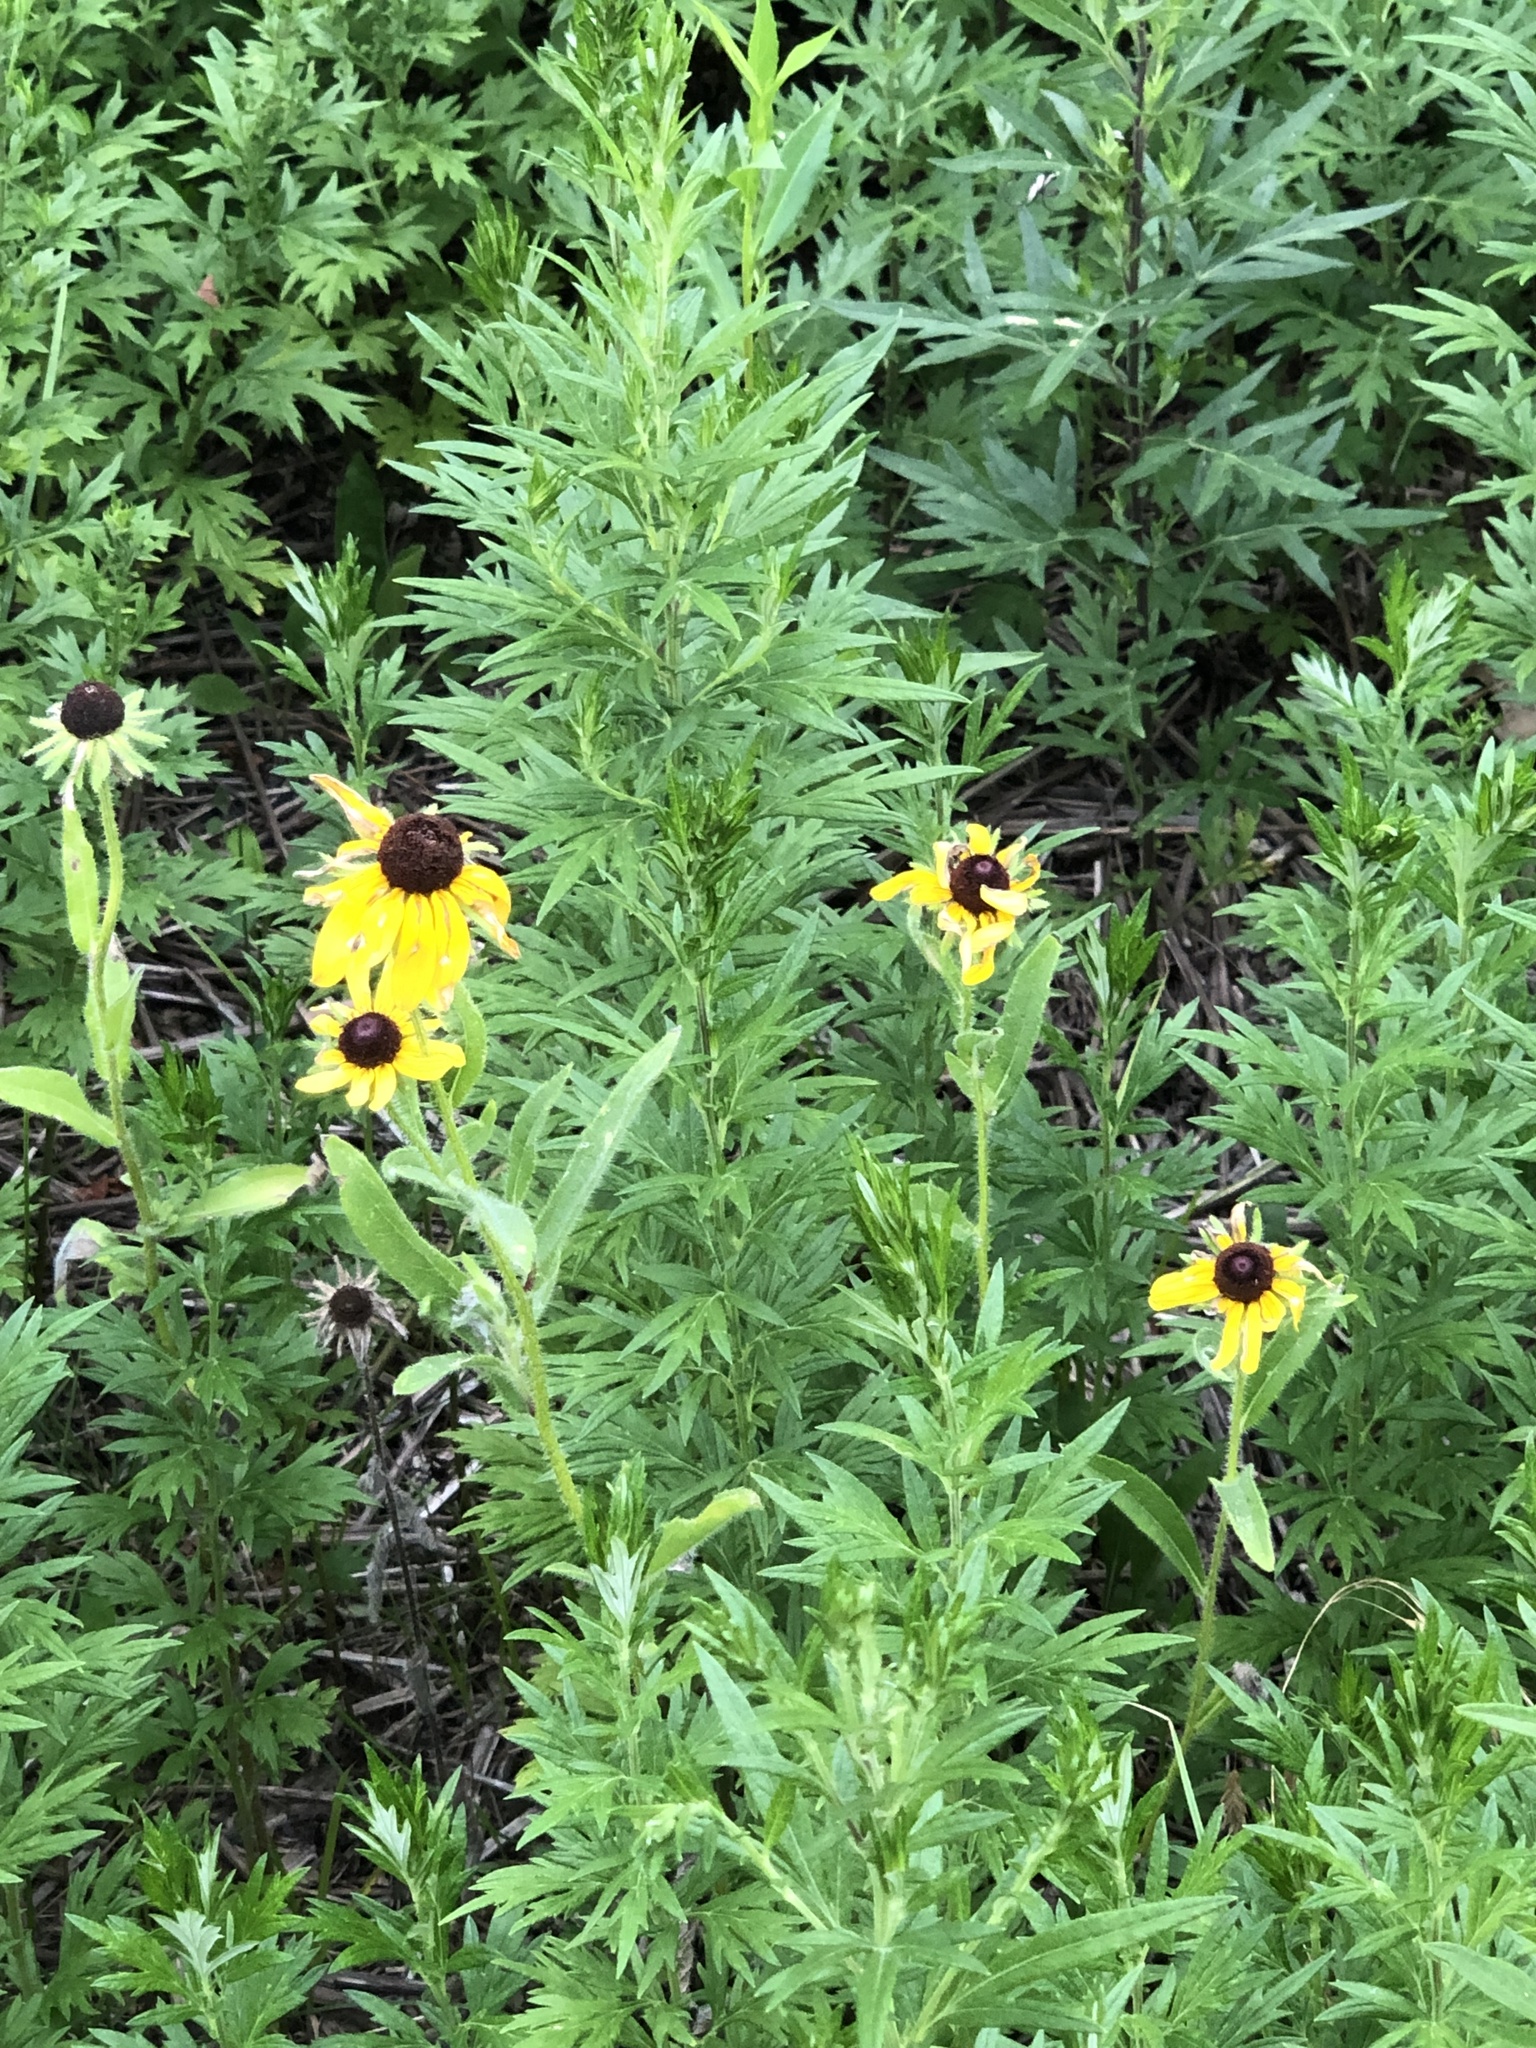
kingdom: Plantae
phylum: Tracheophyta
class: Magnoliopsida
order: Asterales
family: Asteraceae
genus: Rudbeckia
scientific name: Rudbeckia hirta
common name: Black-eyed-susan
